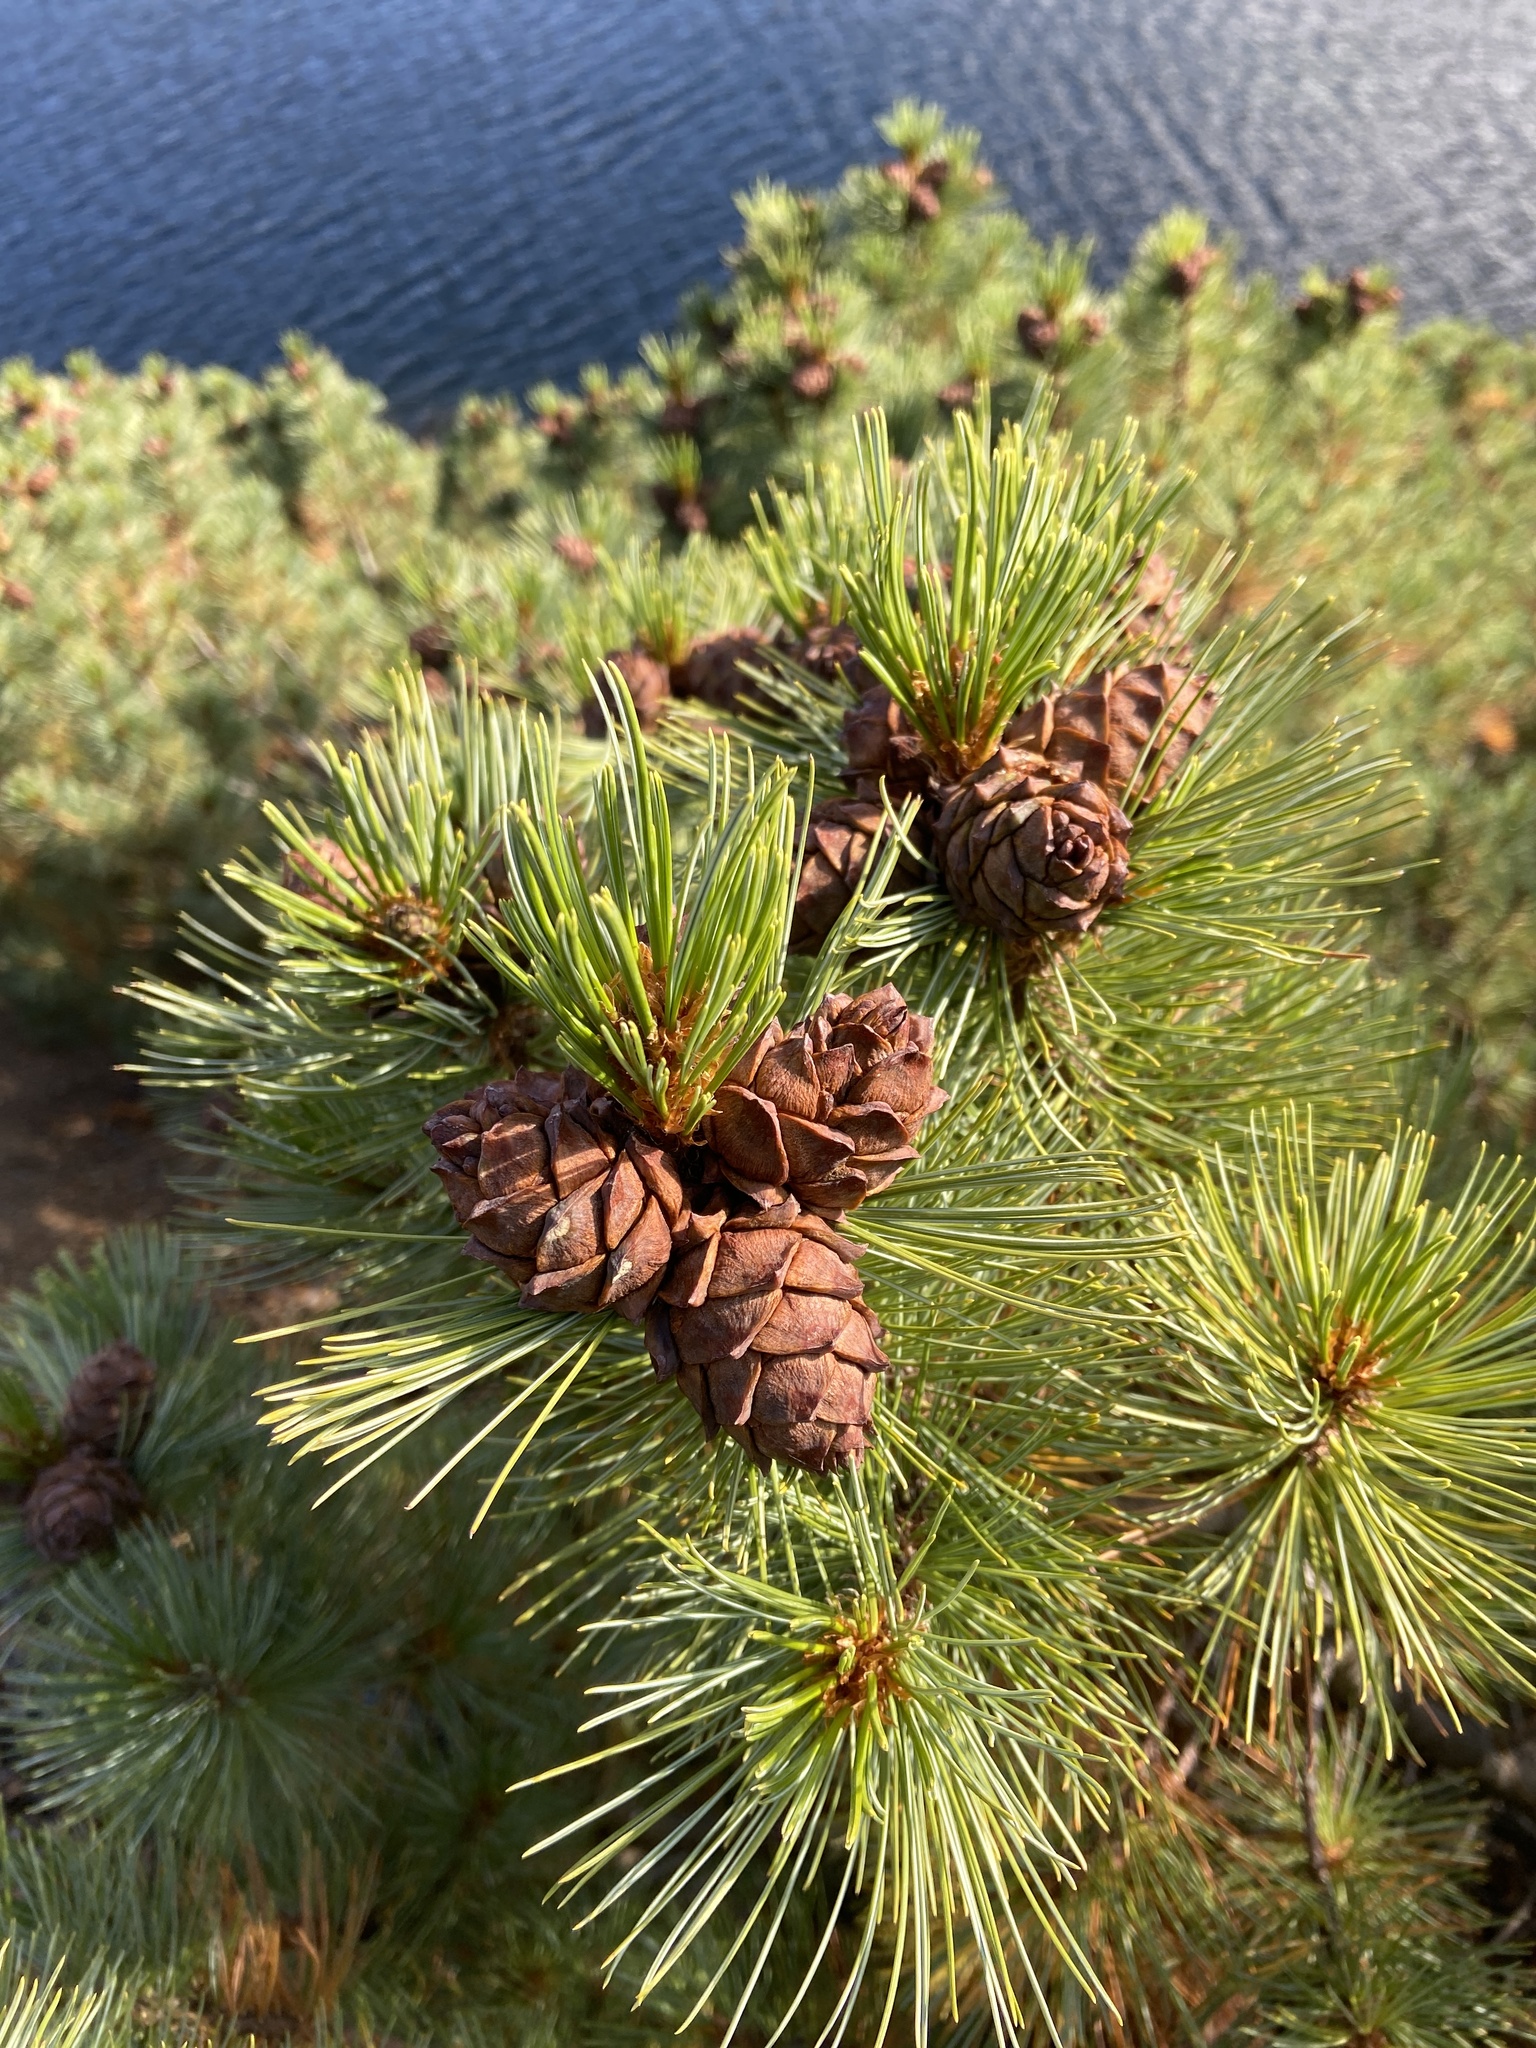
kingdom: Plantae
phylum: Tracheophyta
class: Pinopsida
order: Pinales
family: Pinaceae
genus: Pinus
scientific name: Pinus pumila
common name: Dwarf siberian pine
